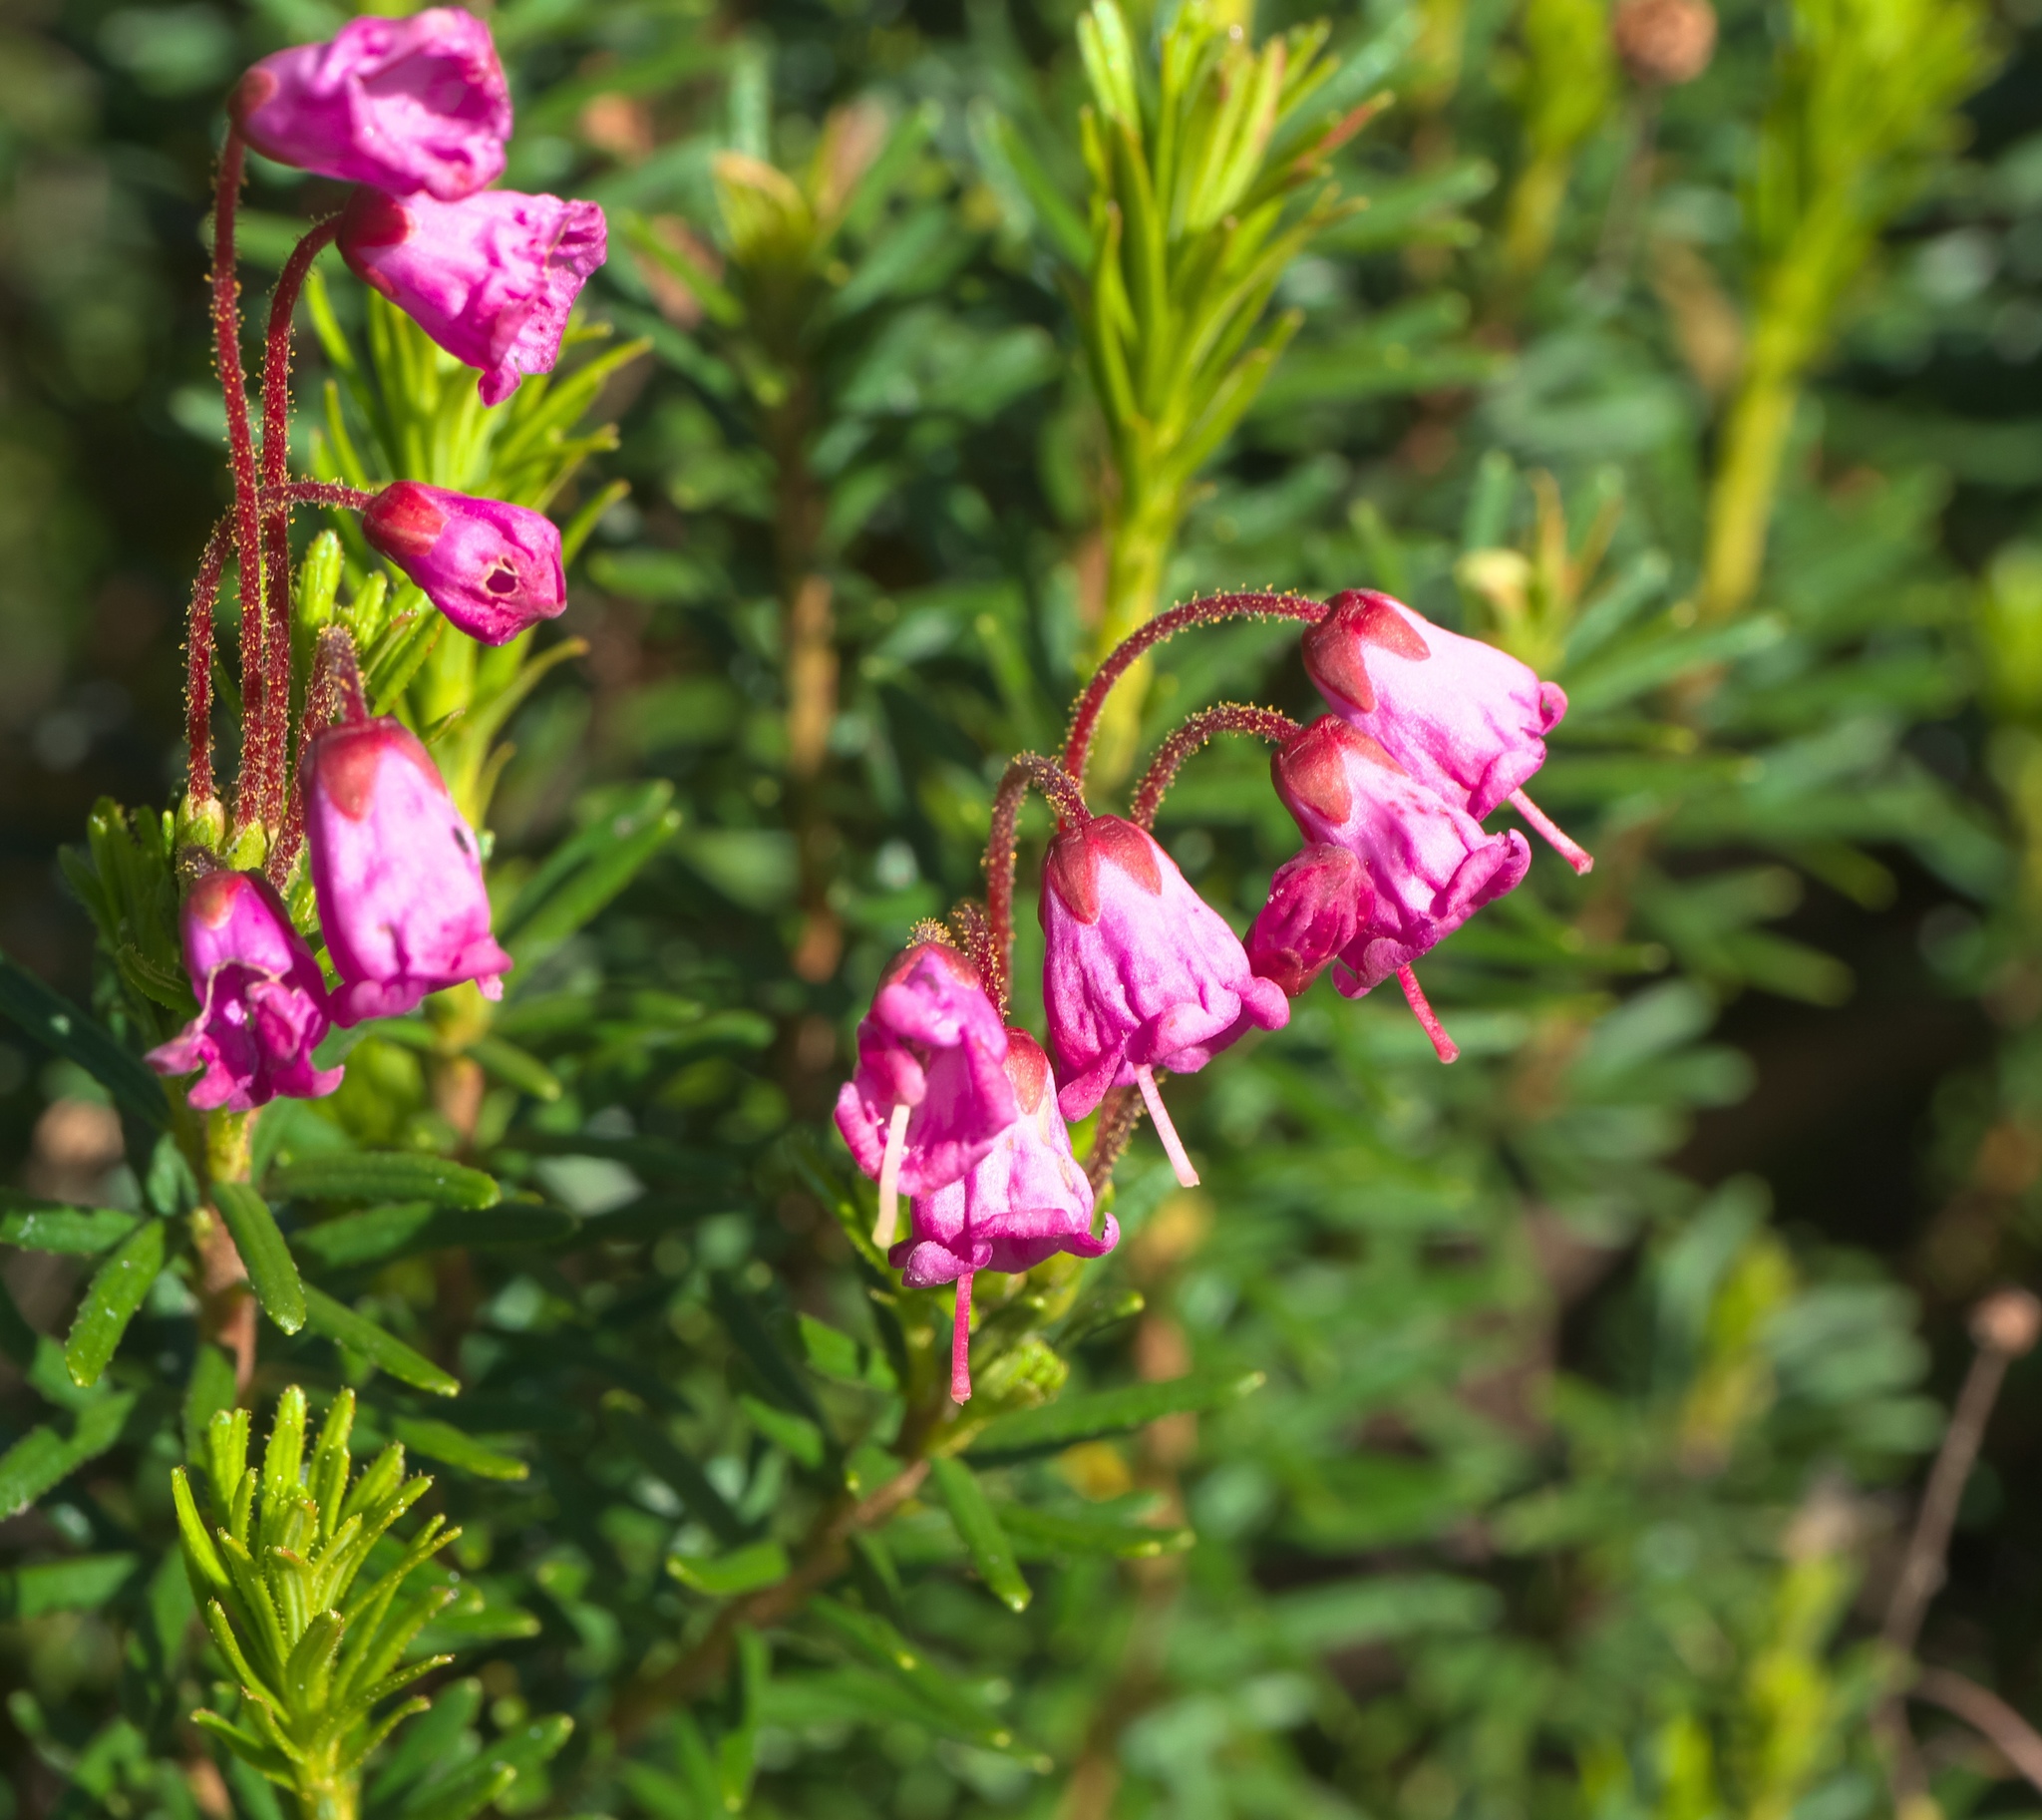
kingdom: Plantae
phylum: Tracheophyta
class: Magnoliopsida
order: Ericales
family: Ericaceae
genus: Phyllodoce
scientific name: Phyllodoce empetriformis
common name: Pink mountain heather
